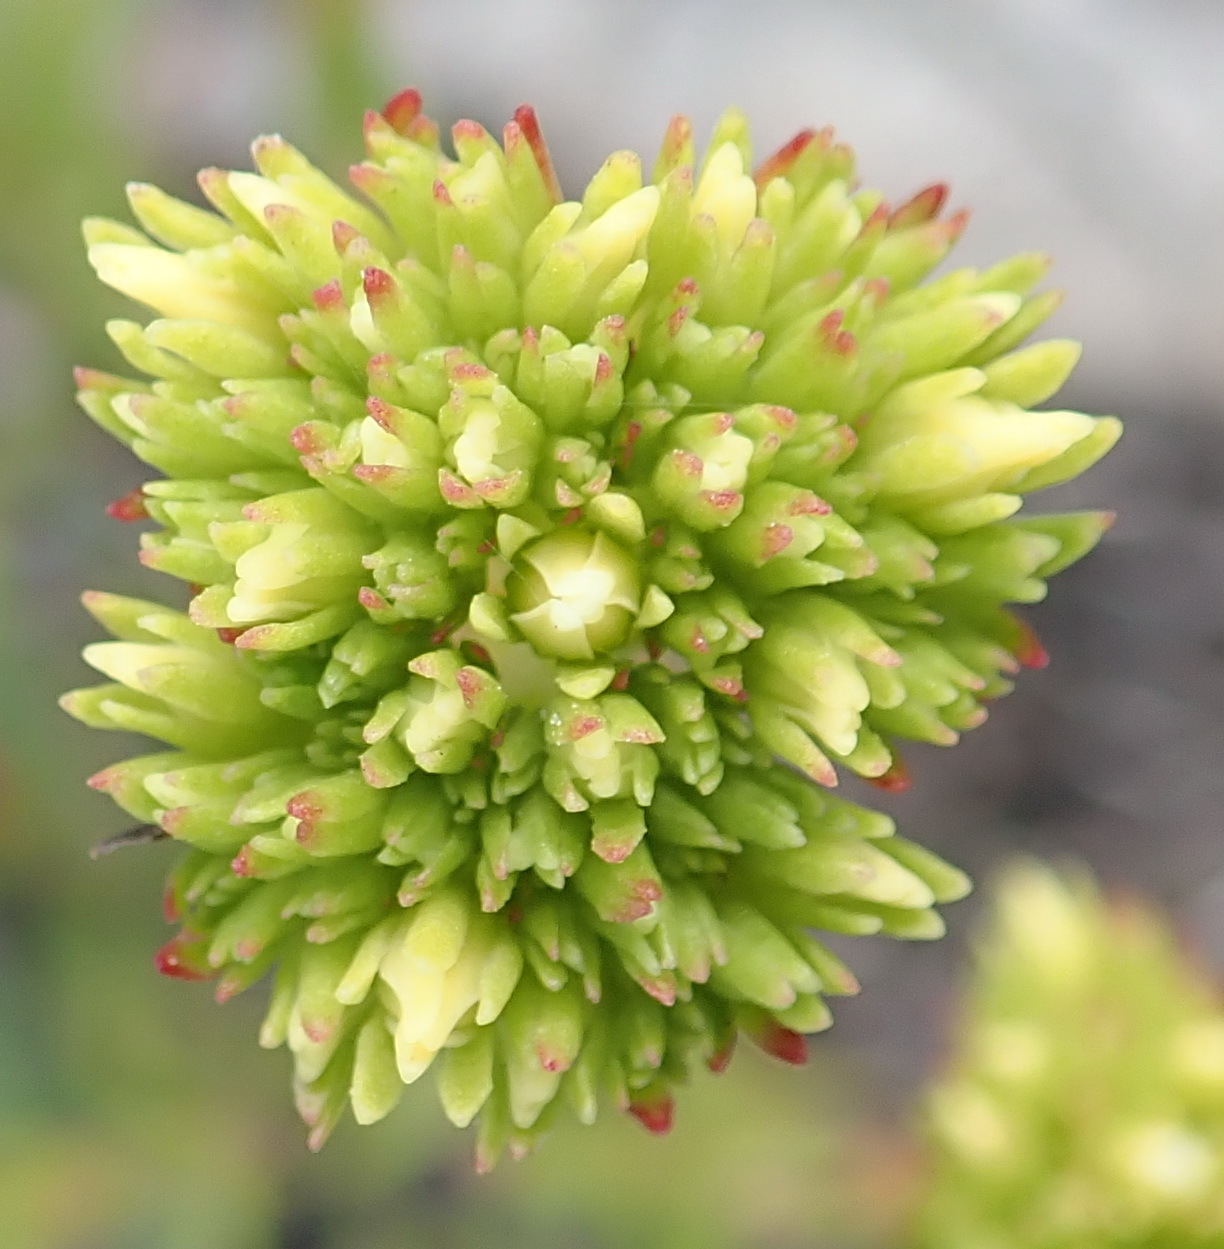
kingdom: Plantae
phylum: Tracheophyta
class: Magnoliopsida
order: Saxifragales
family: Crassulaceae
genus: Crassula
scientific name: Crassula subulata
